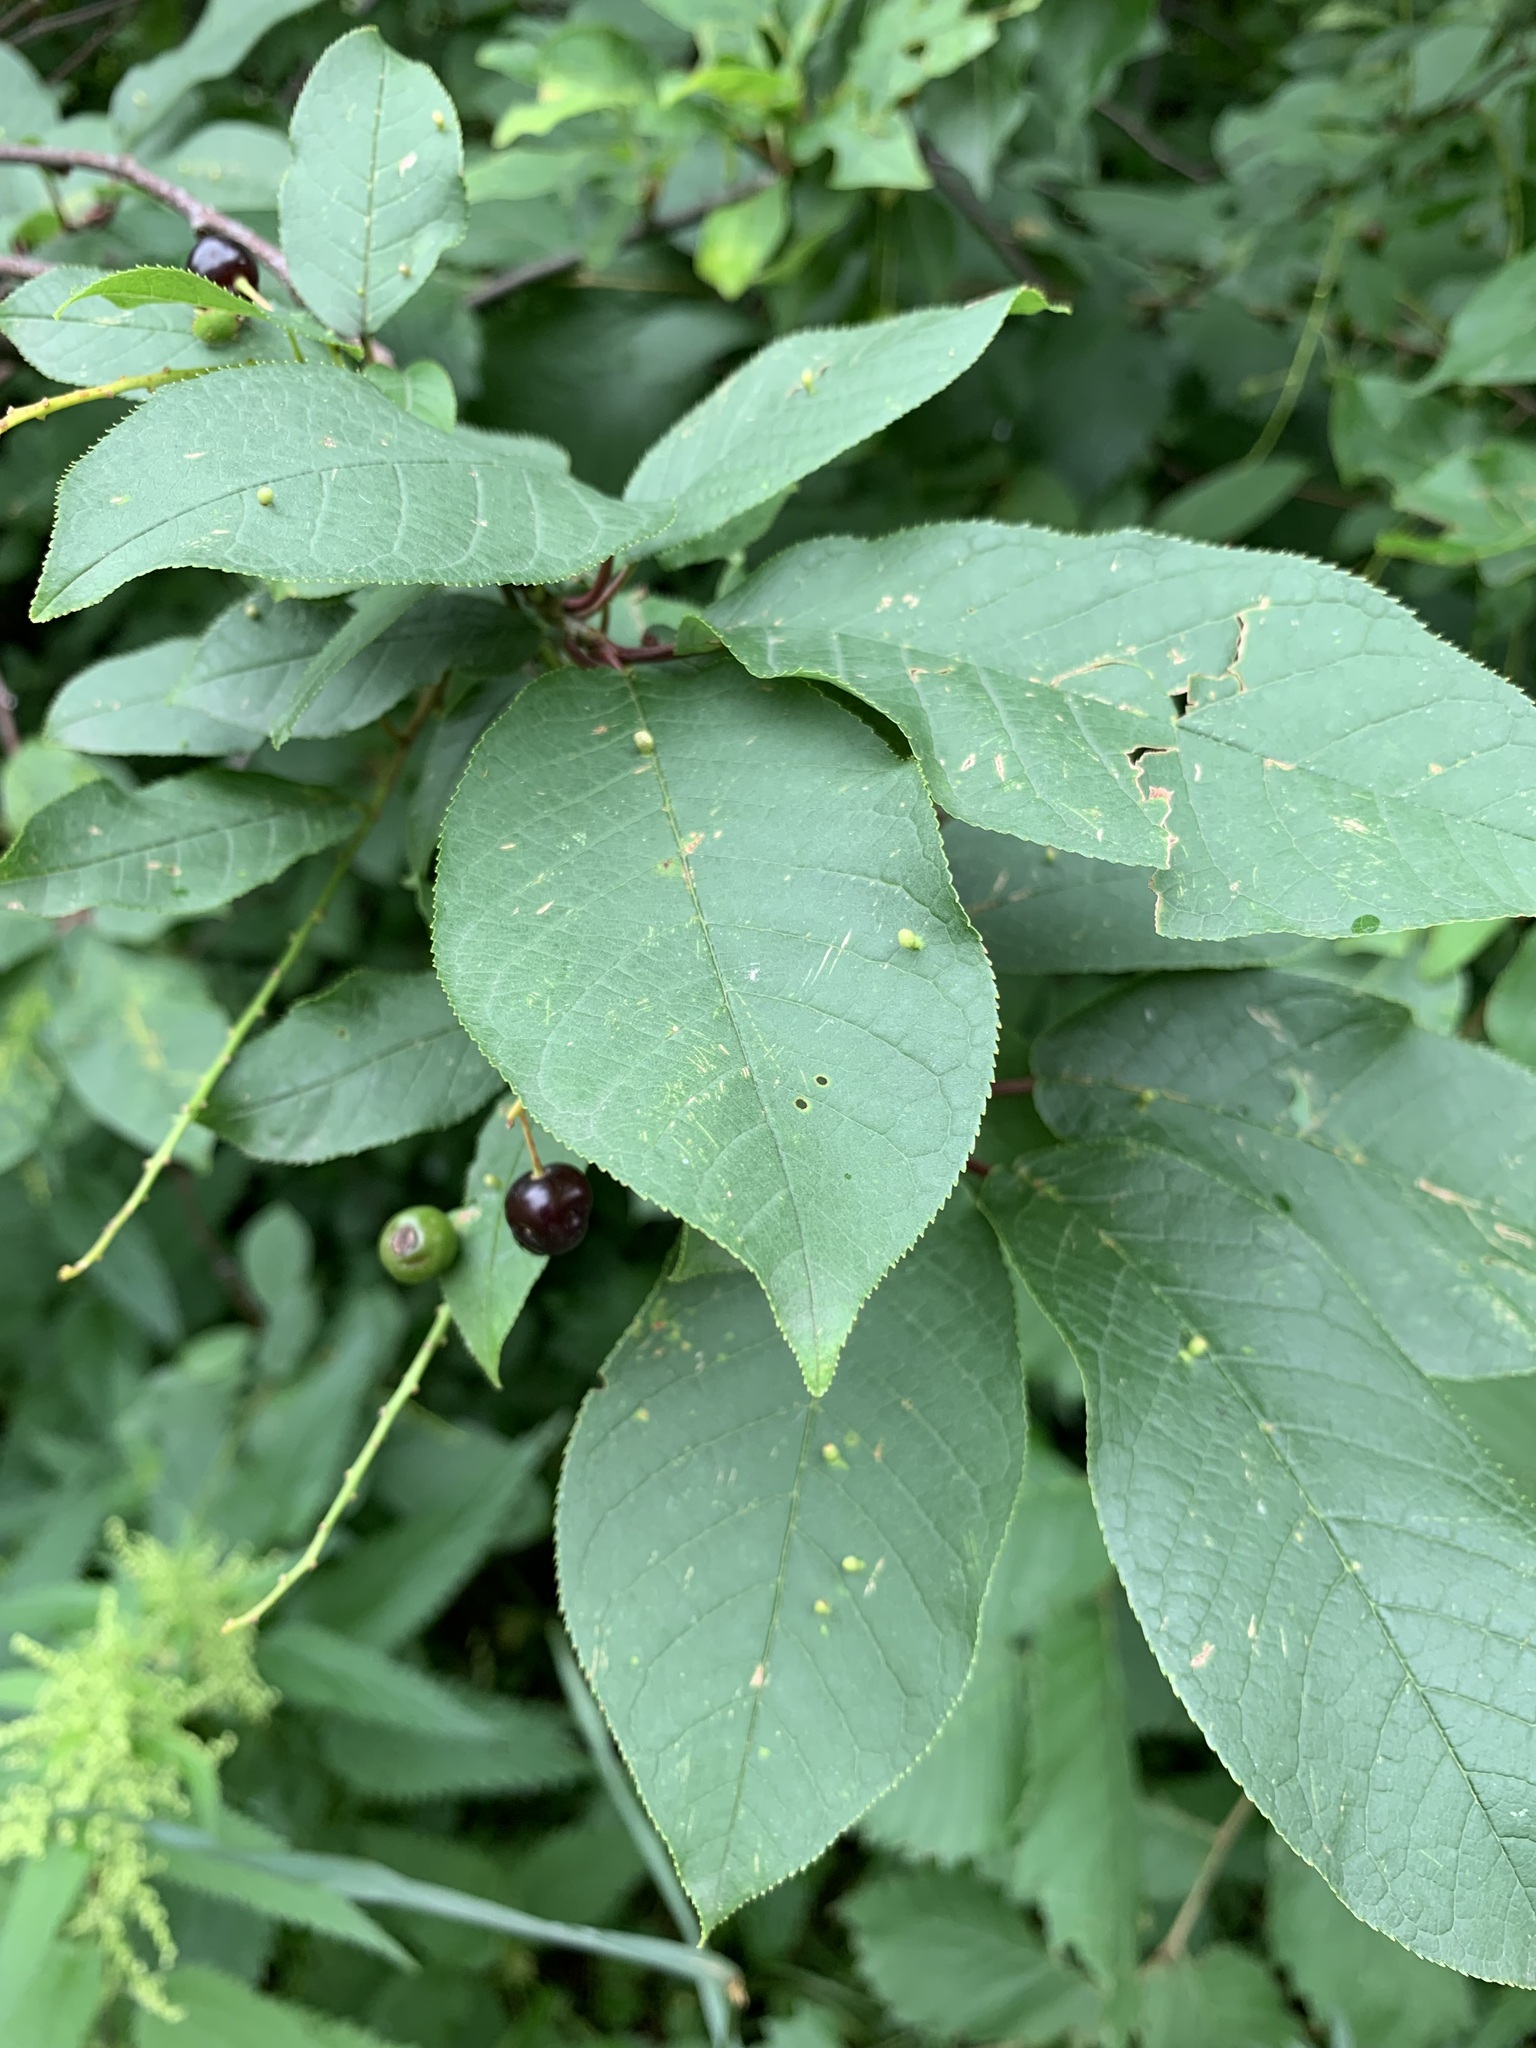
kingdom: Plantae
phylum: Tracheophyta
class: Magnoliopsida
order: Rosales
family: Rosaceae
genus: Prunus
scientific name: Prunus padus
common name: Bird cherry
